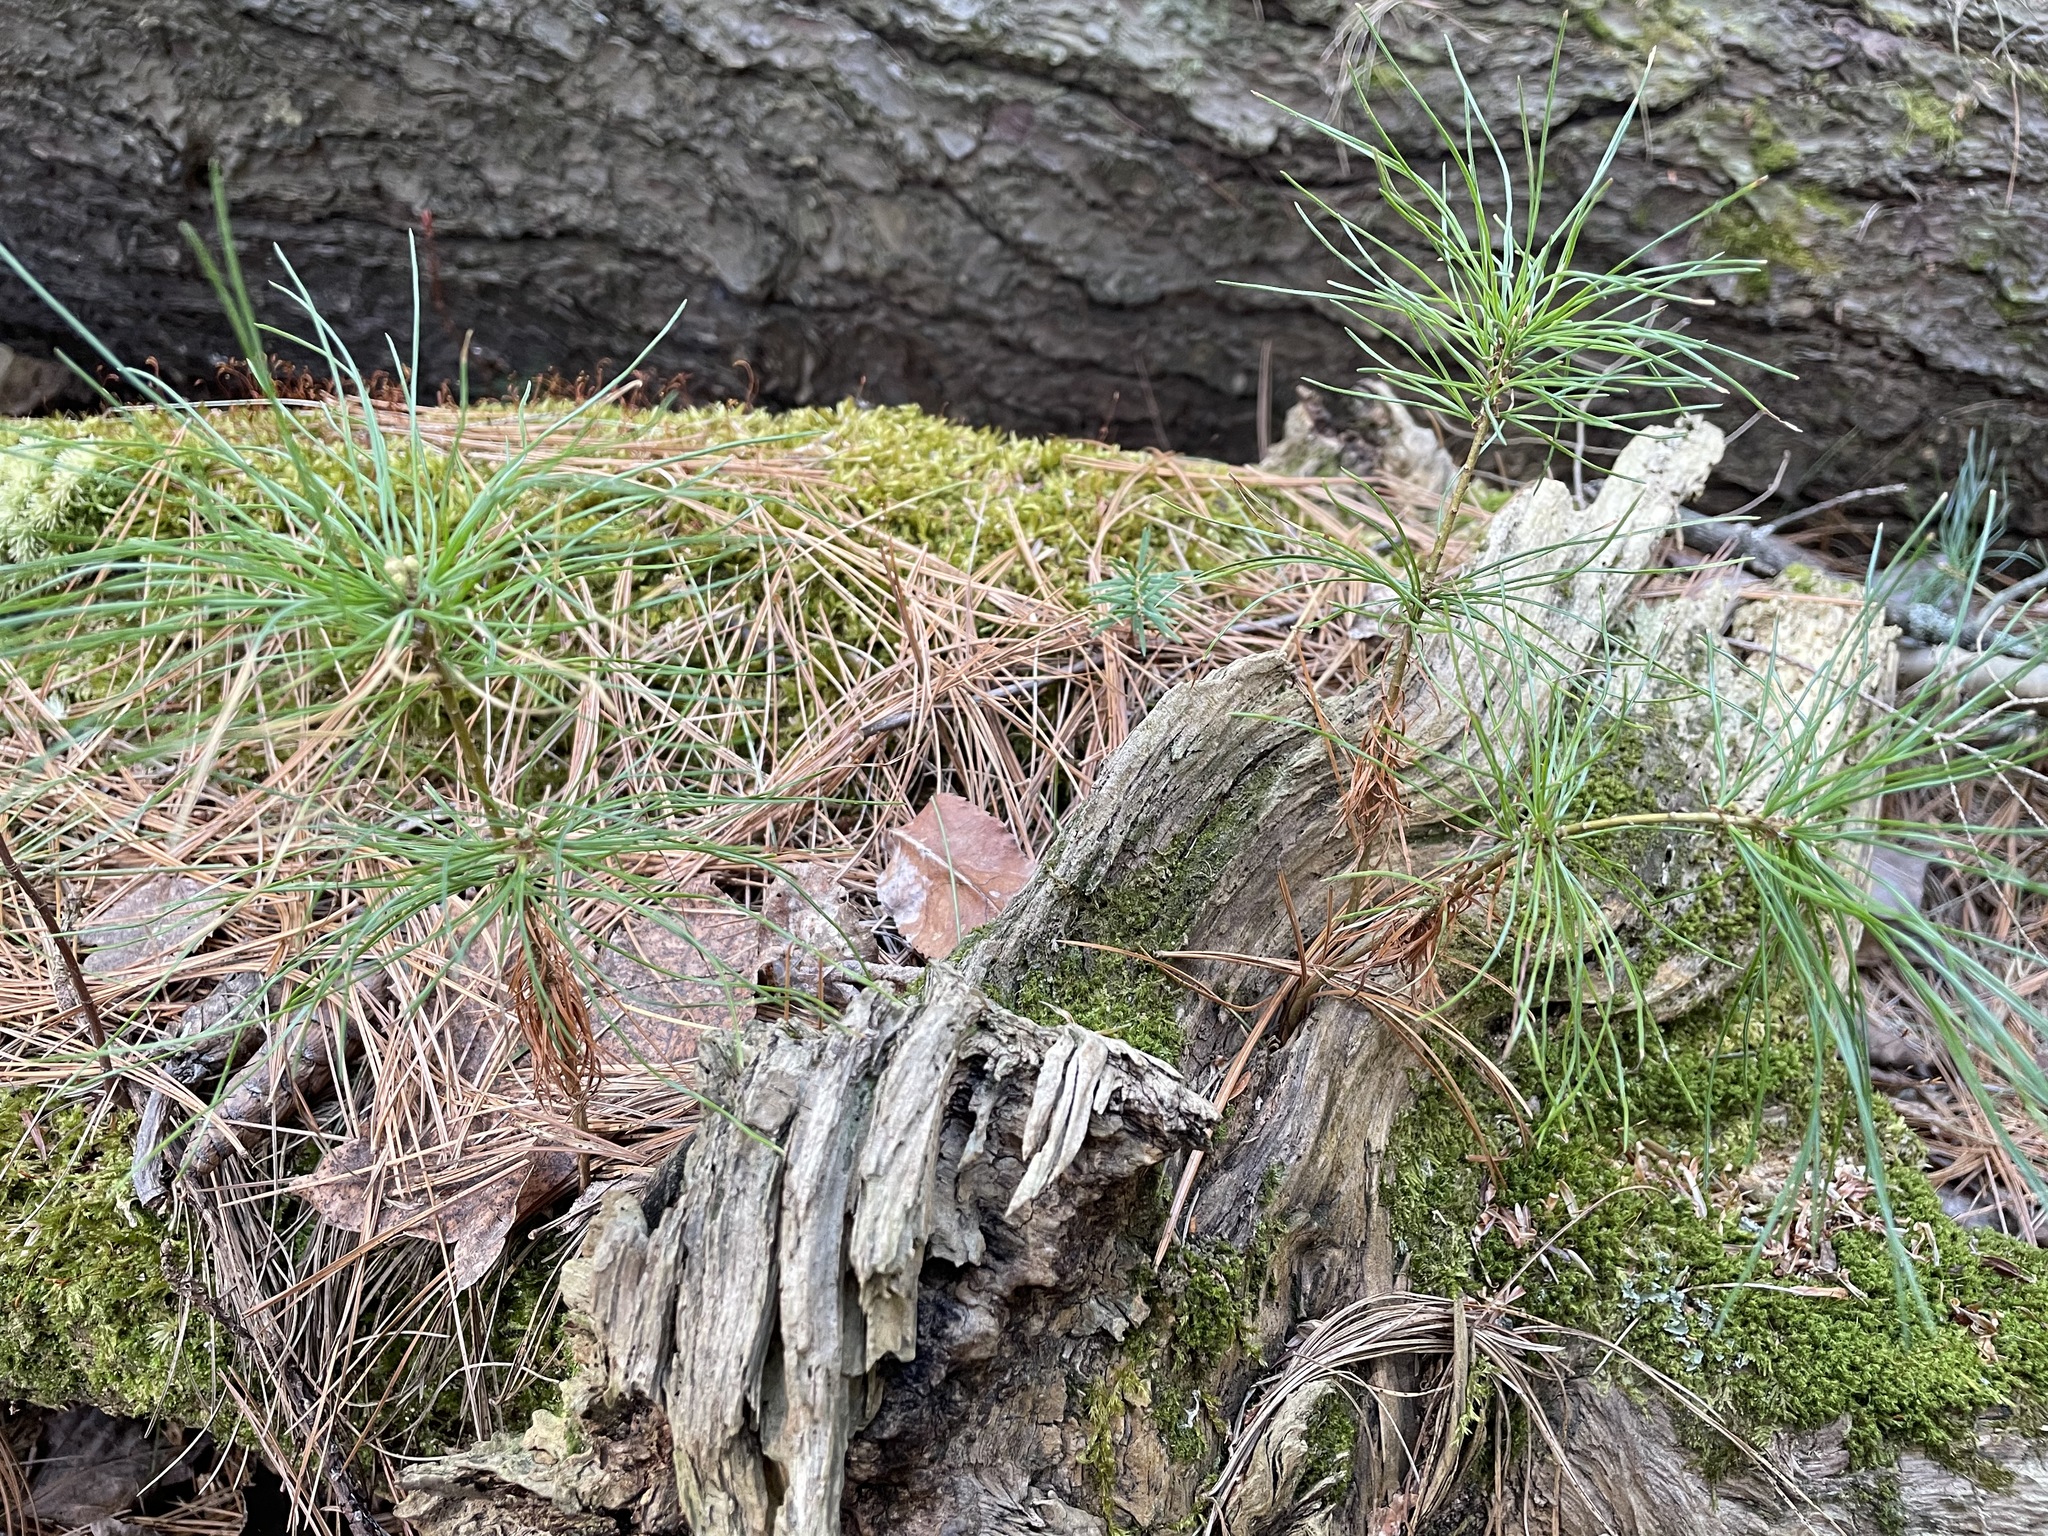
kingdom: Plantae
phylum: Tracheophyta
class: Pinopsida
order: Pinales
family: Pinaceae
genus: Pinus
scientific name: Pinus strobus
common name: Weymouth pine
